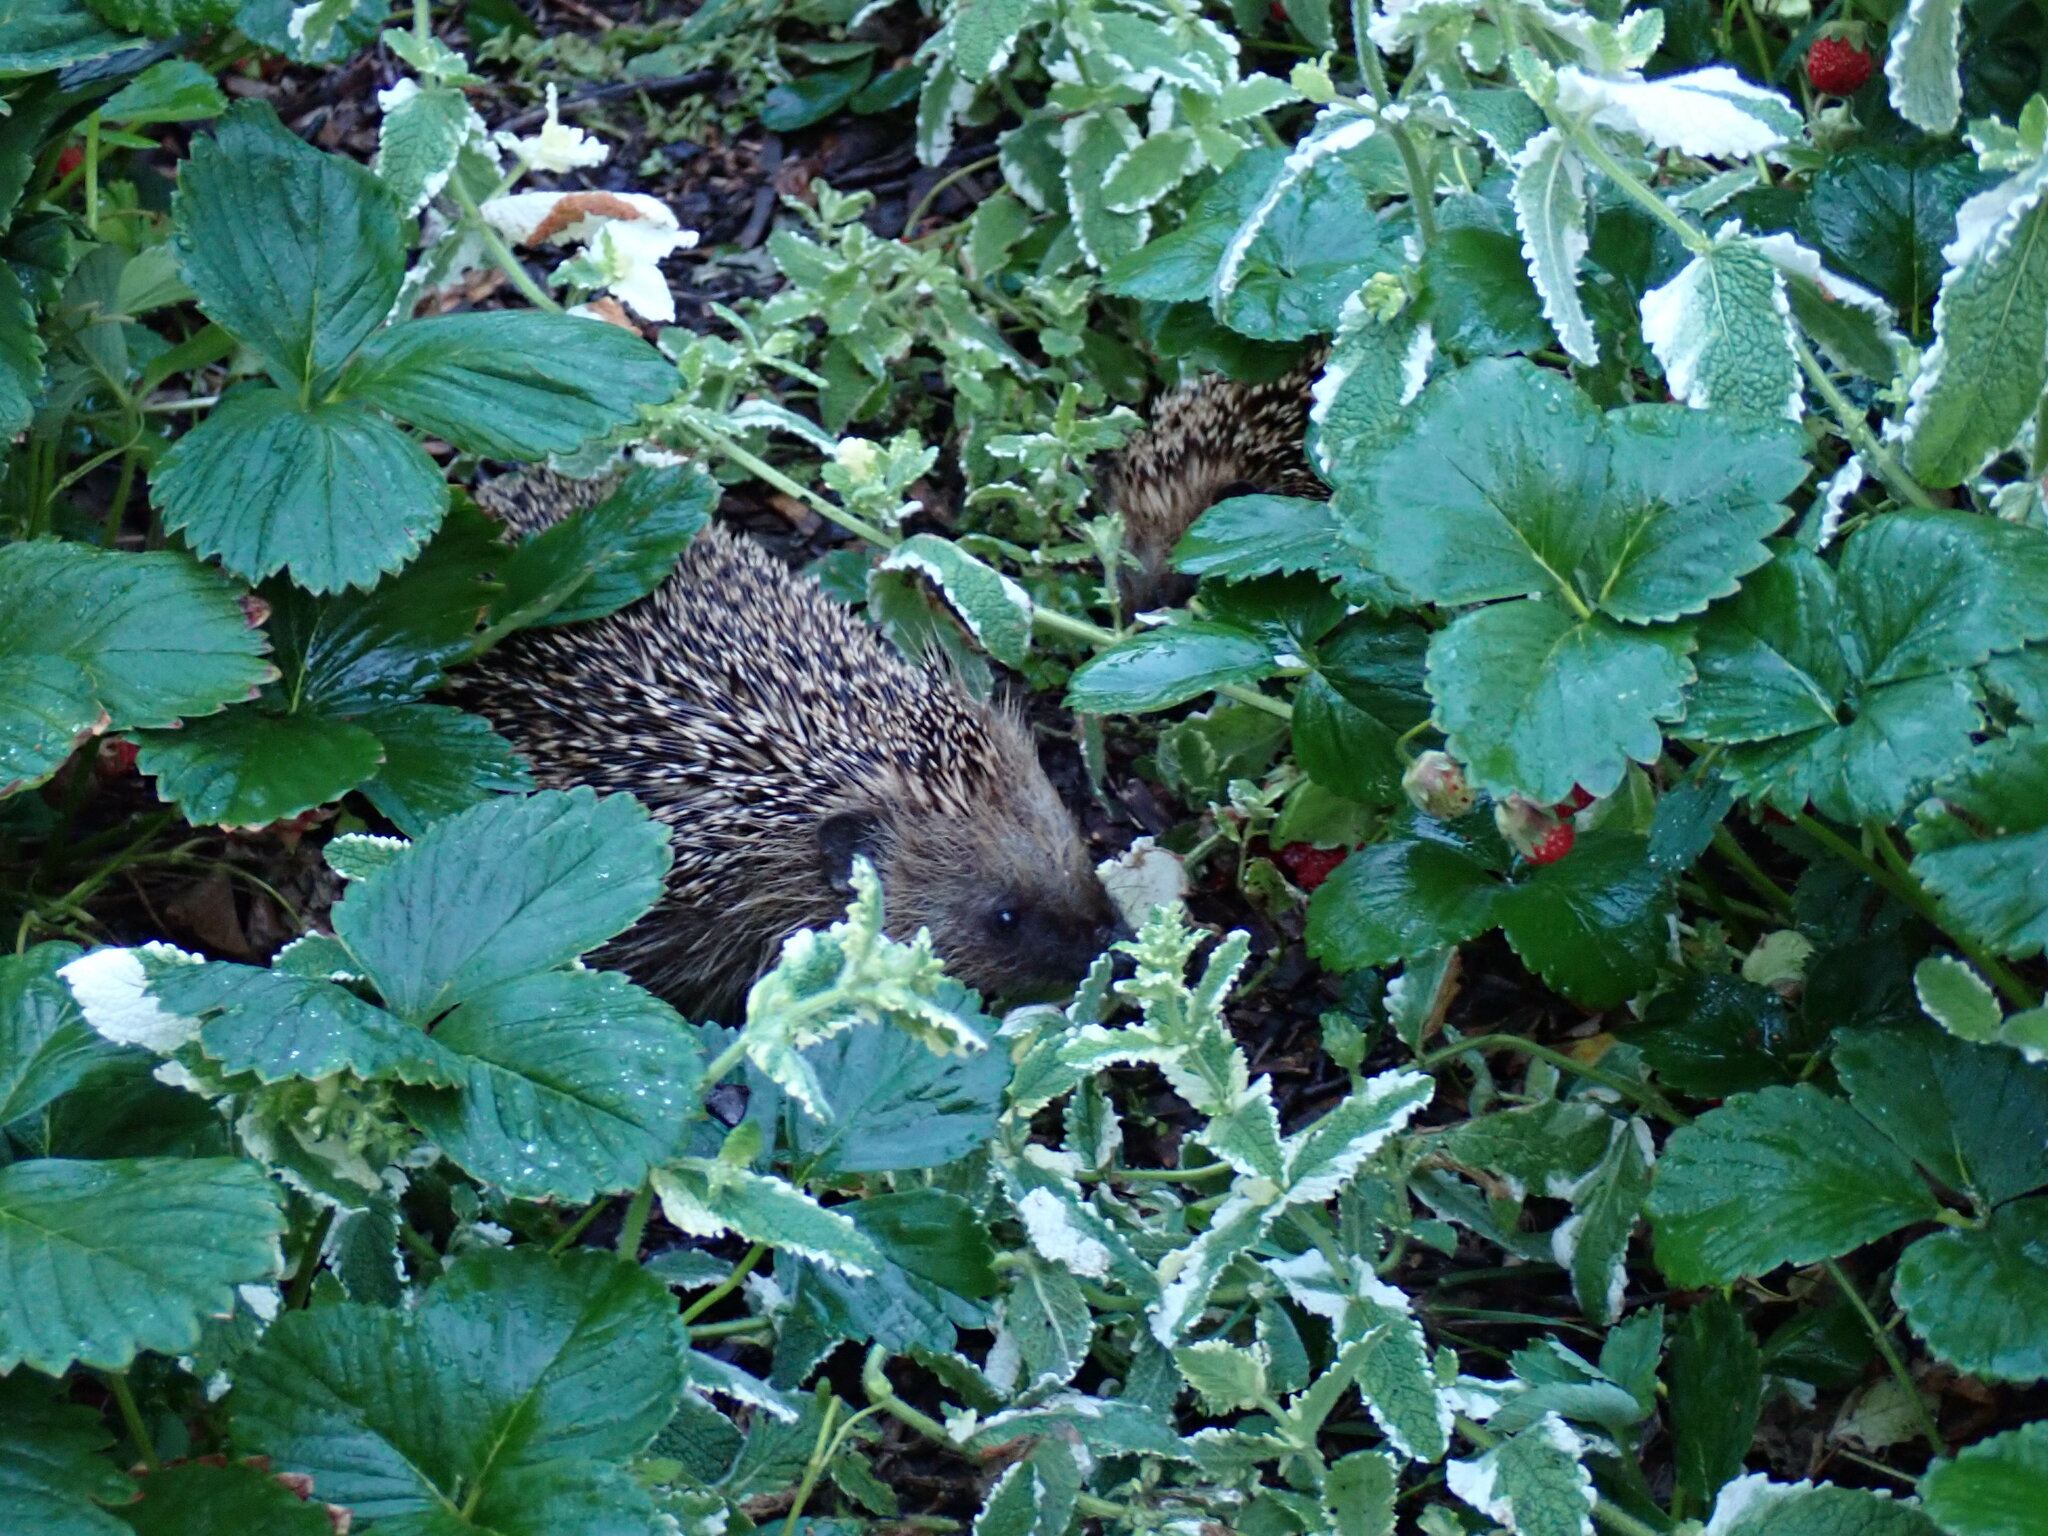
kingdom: Animalia
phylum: Chordata
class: Mammalia
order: Erinaceomorpha
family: Erinaceidae
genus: Erinaceus
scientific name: Erinaceus europaeus
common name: West european hedgehog
